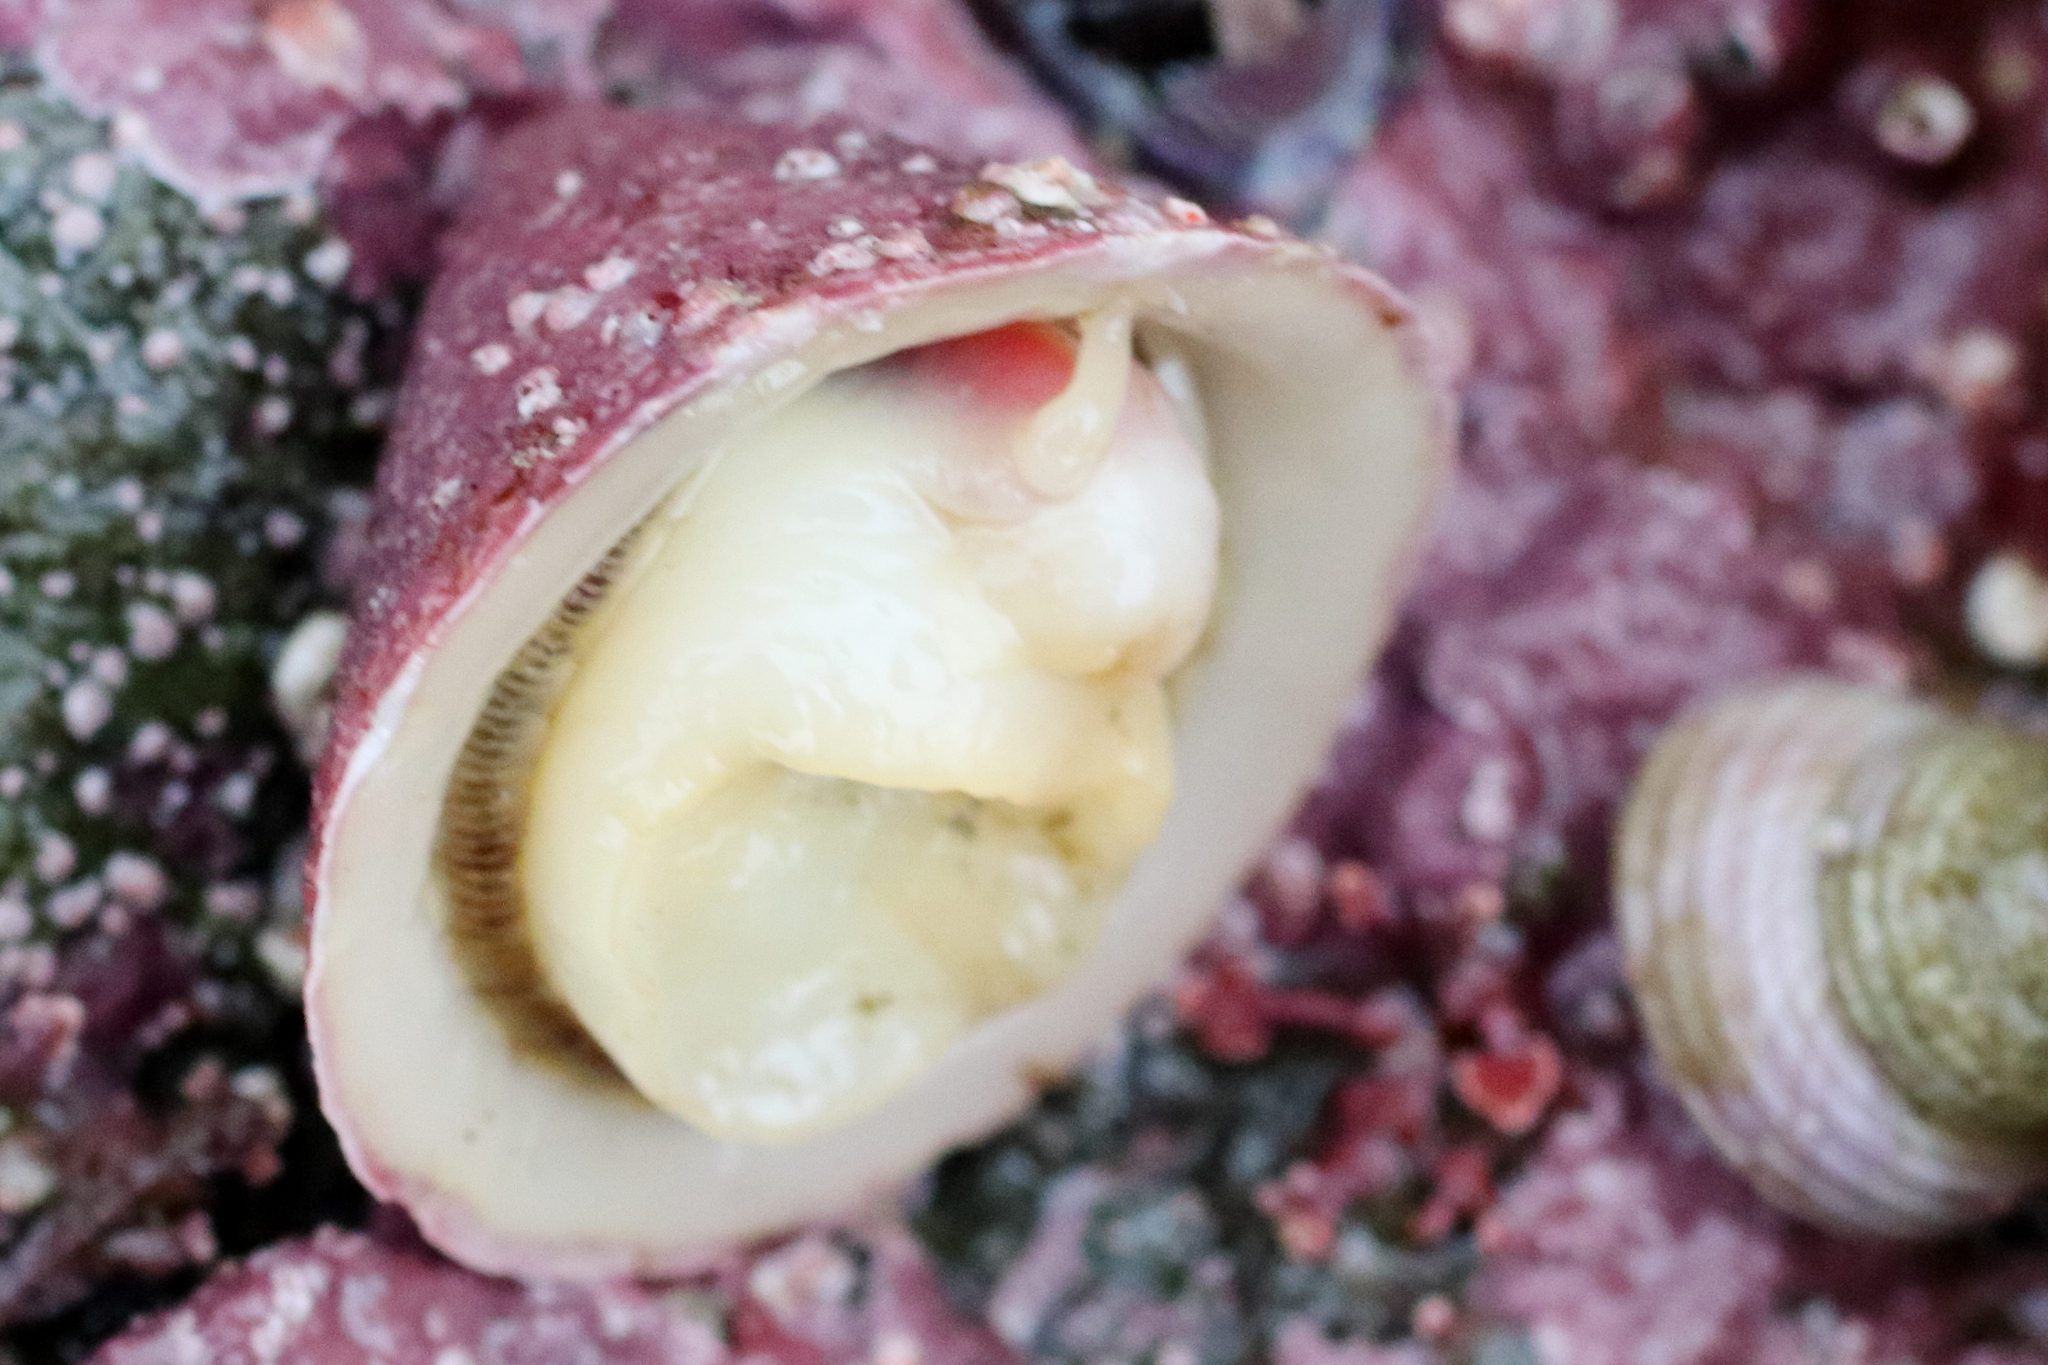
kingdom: Animalia
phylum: Mollusca
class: Gastropoda
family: Acmaeidae
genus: Acmaea
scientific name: Acmaea mitra
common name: Pacific white cap limpet
